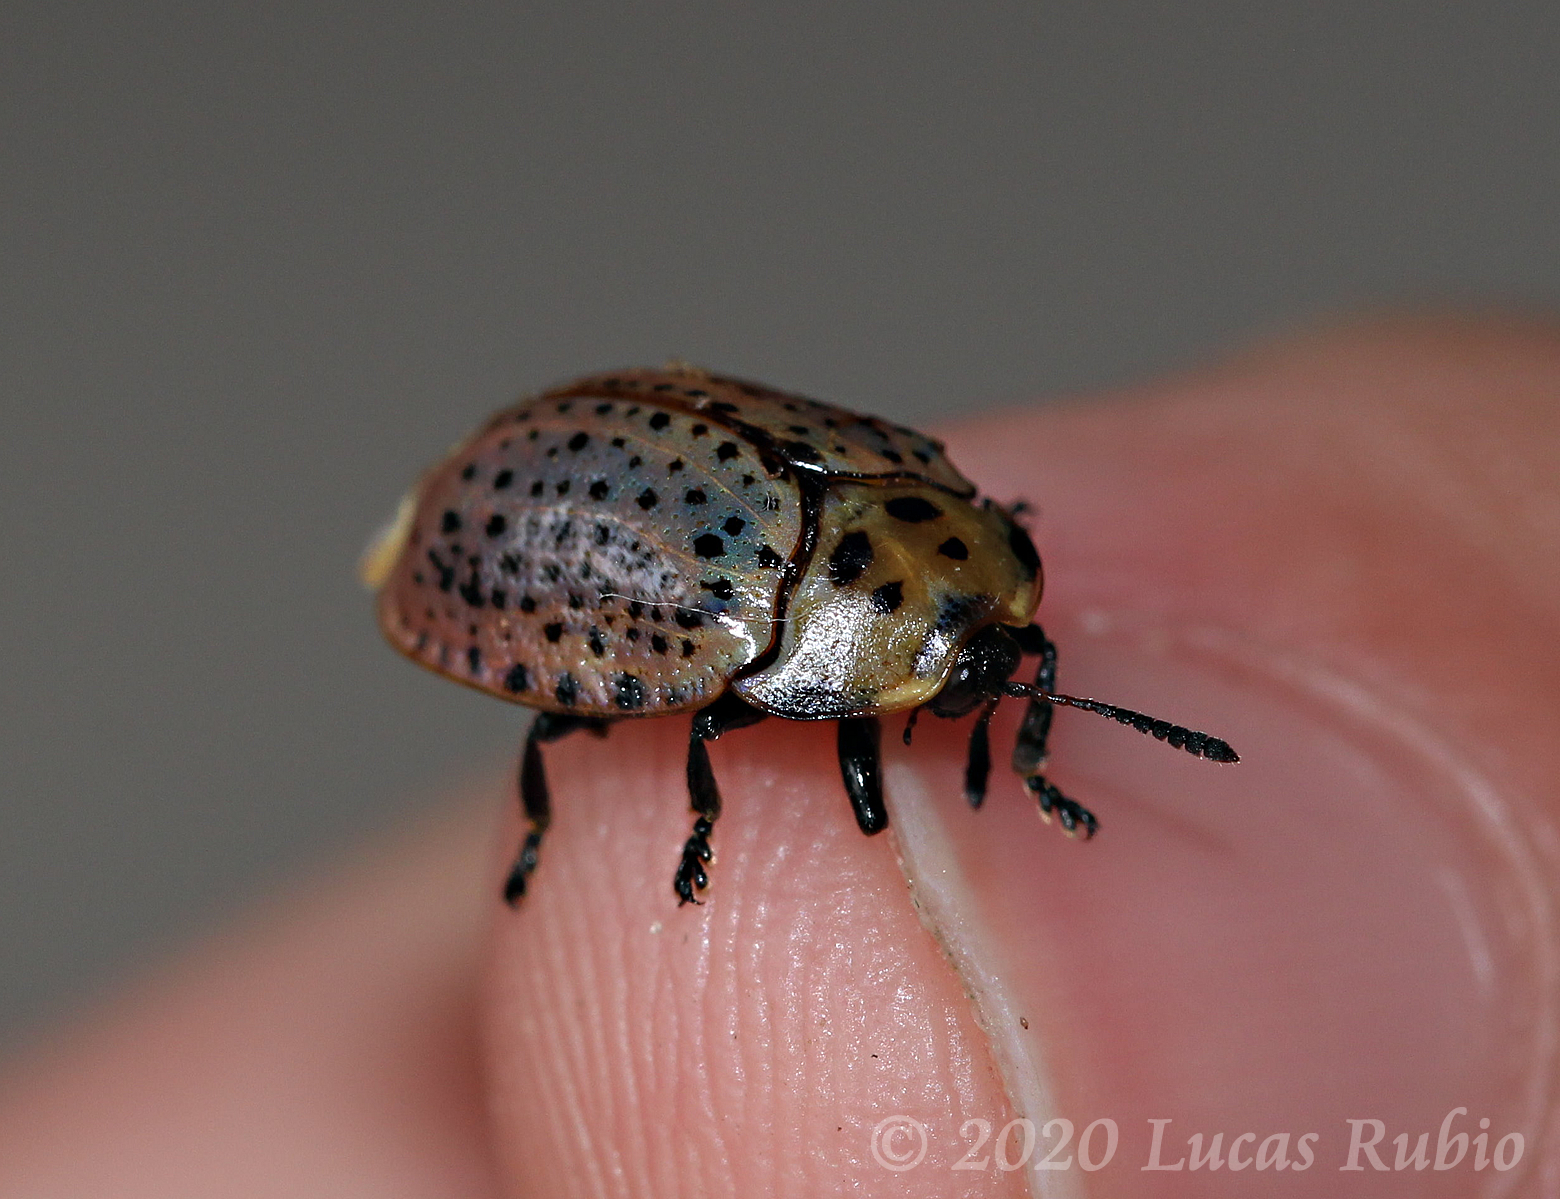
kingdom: Animalia
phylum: Arthropoda
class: Insecta
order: Coleoptera
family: Chrysomelidae
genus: Chelymorpha
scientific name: Chelymorpha varians
